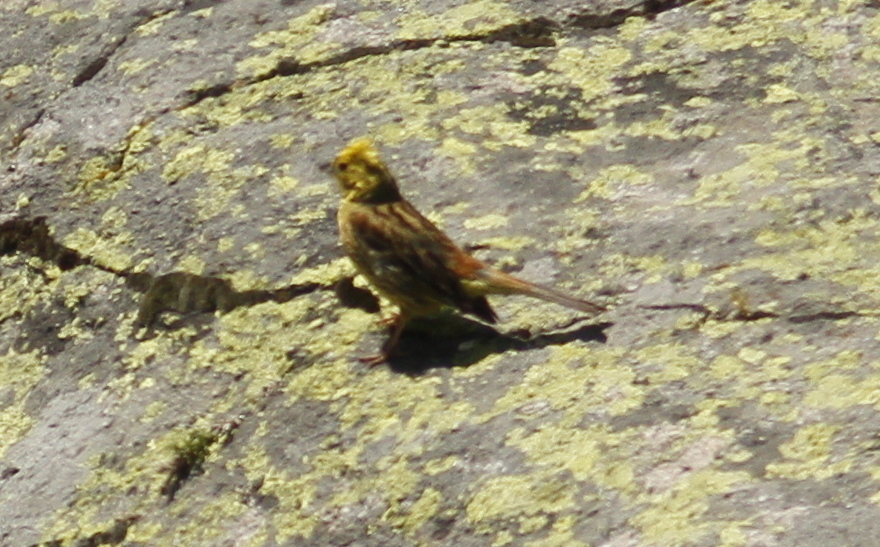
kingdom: Animalia
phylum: Chordata
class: Aves
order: Passeriformes
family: Emberizidae
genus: Emberiza
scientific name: Emberiza citrinella
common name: Yellowhammer
